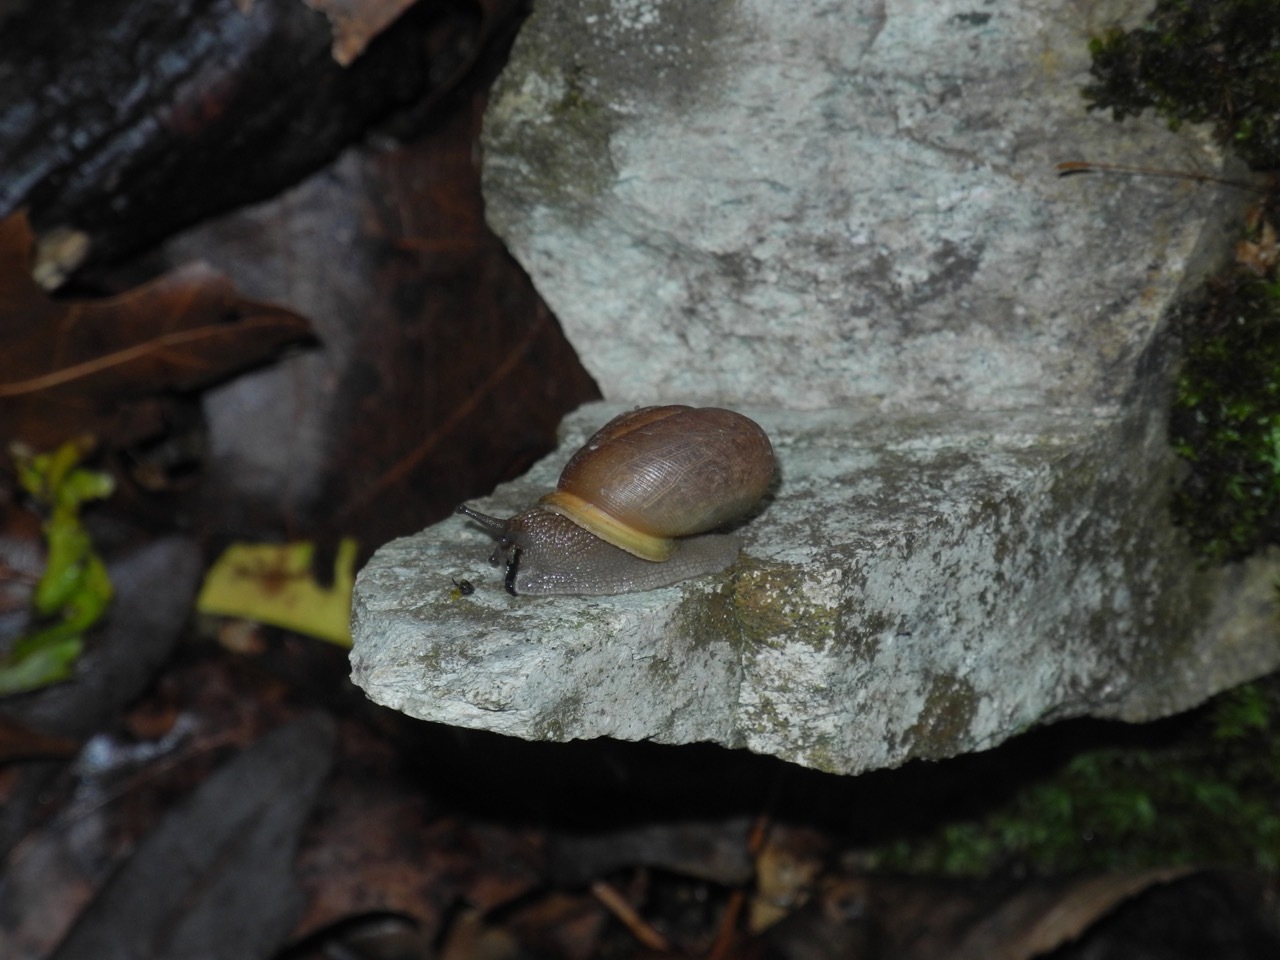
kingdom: Animalia
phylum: Mollusca
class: Gastropoda
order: Stylommatophora
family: Polygyridae
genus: Neohelix
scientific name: Neohelix major
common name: Southeastern whitelip
